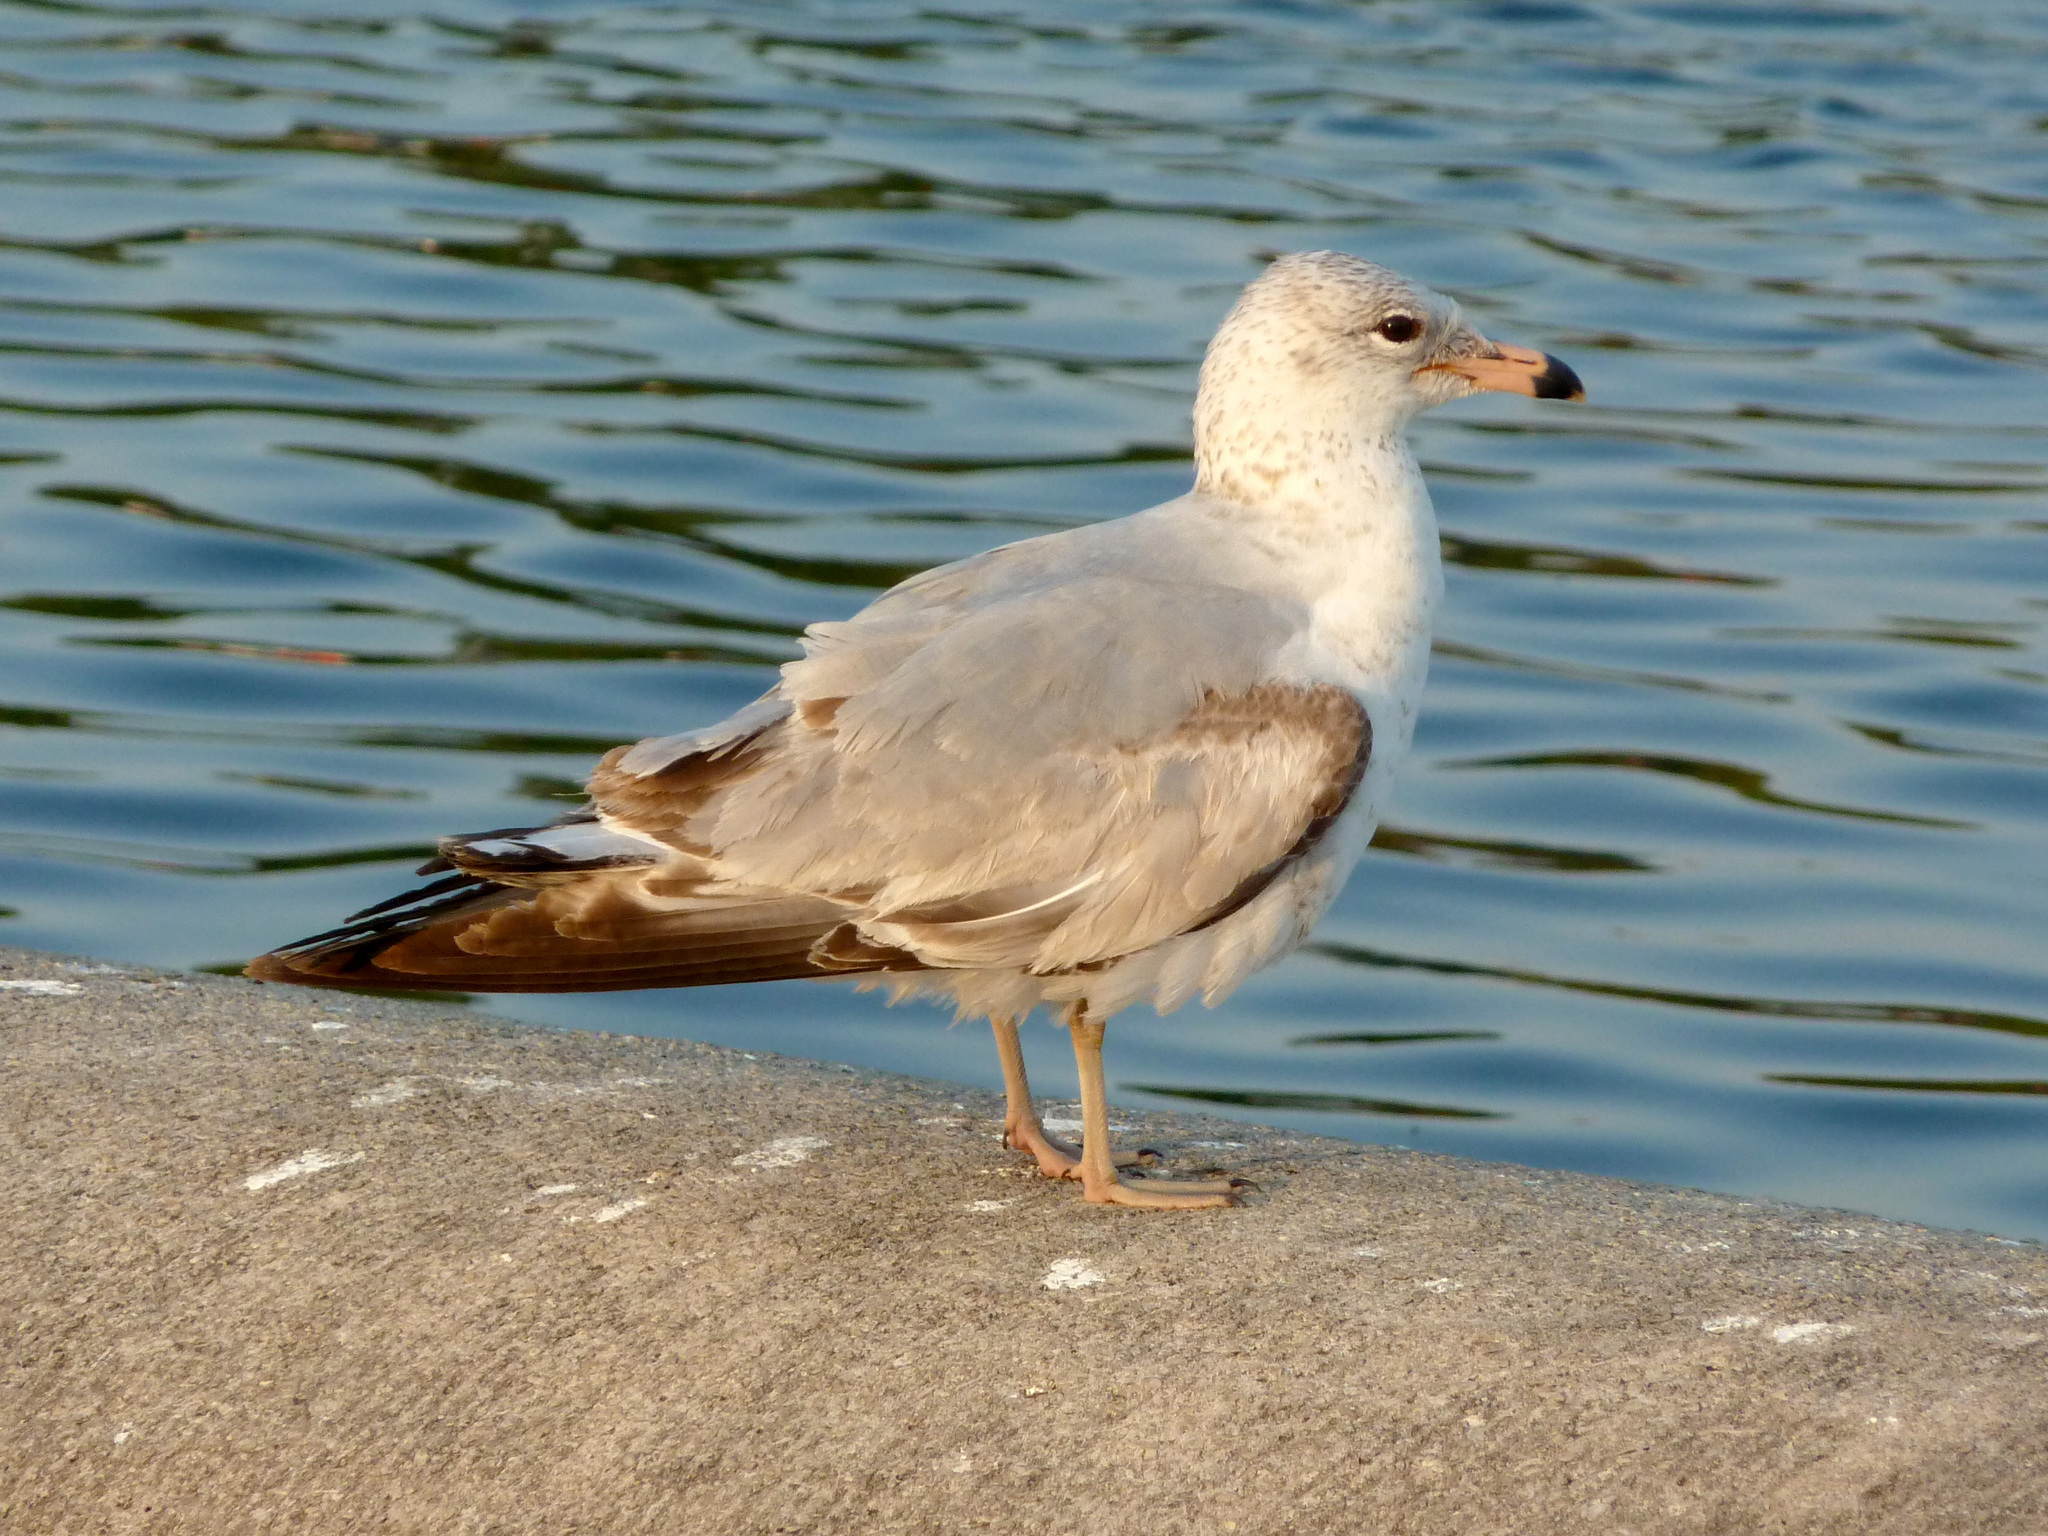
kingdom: Animalia
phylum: Chordata
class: Aves
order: Charadriiformes
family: Laridae
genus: Larus
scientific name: Larus delawarensis
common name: Ring-billed gull
